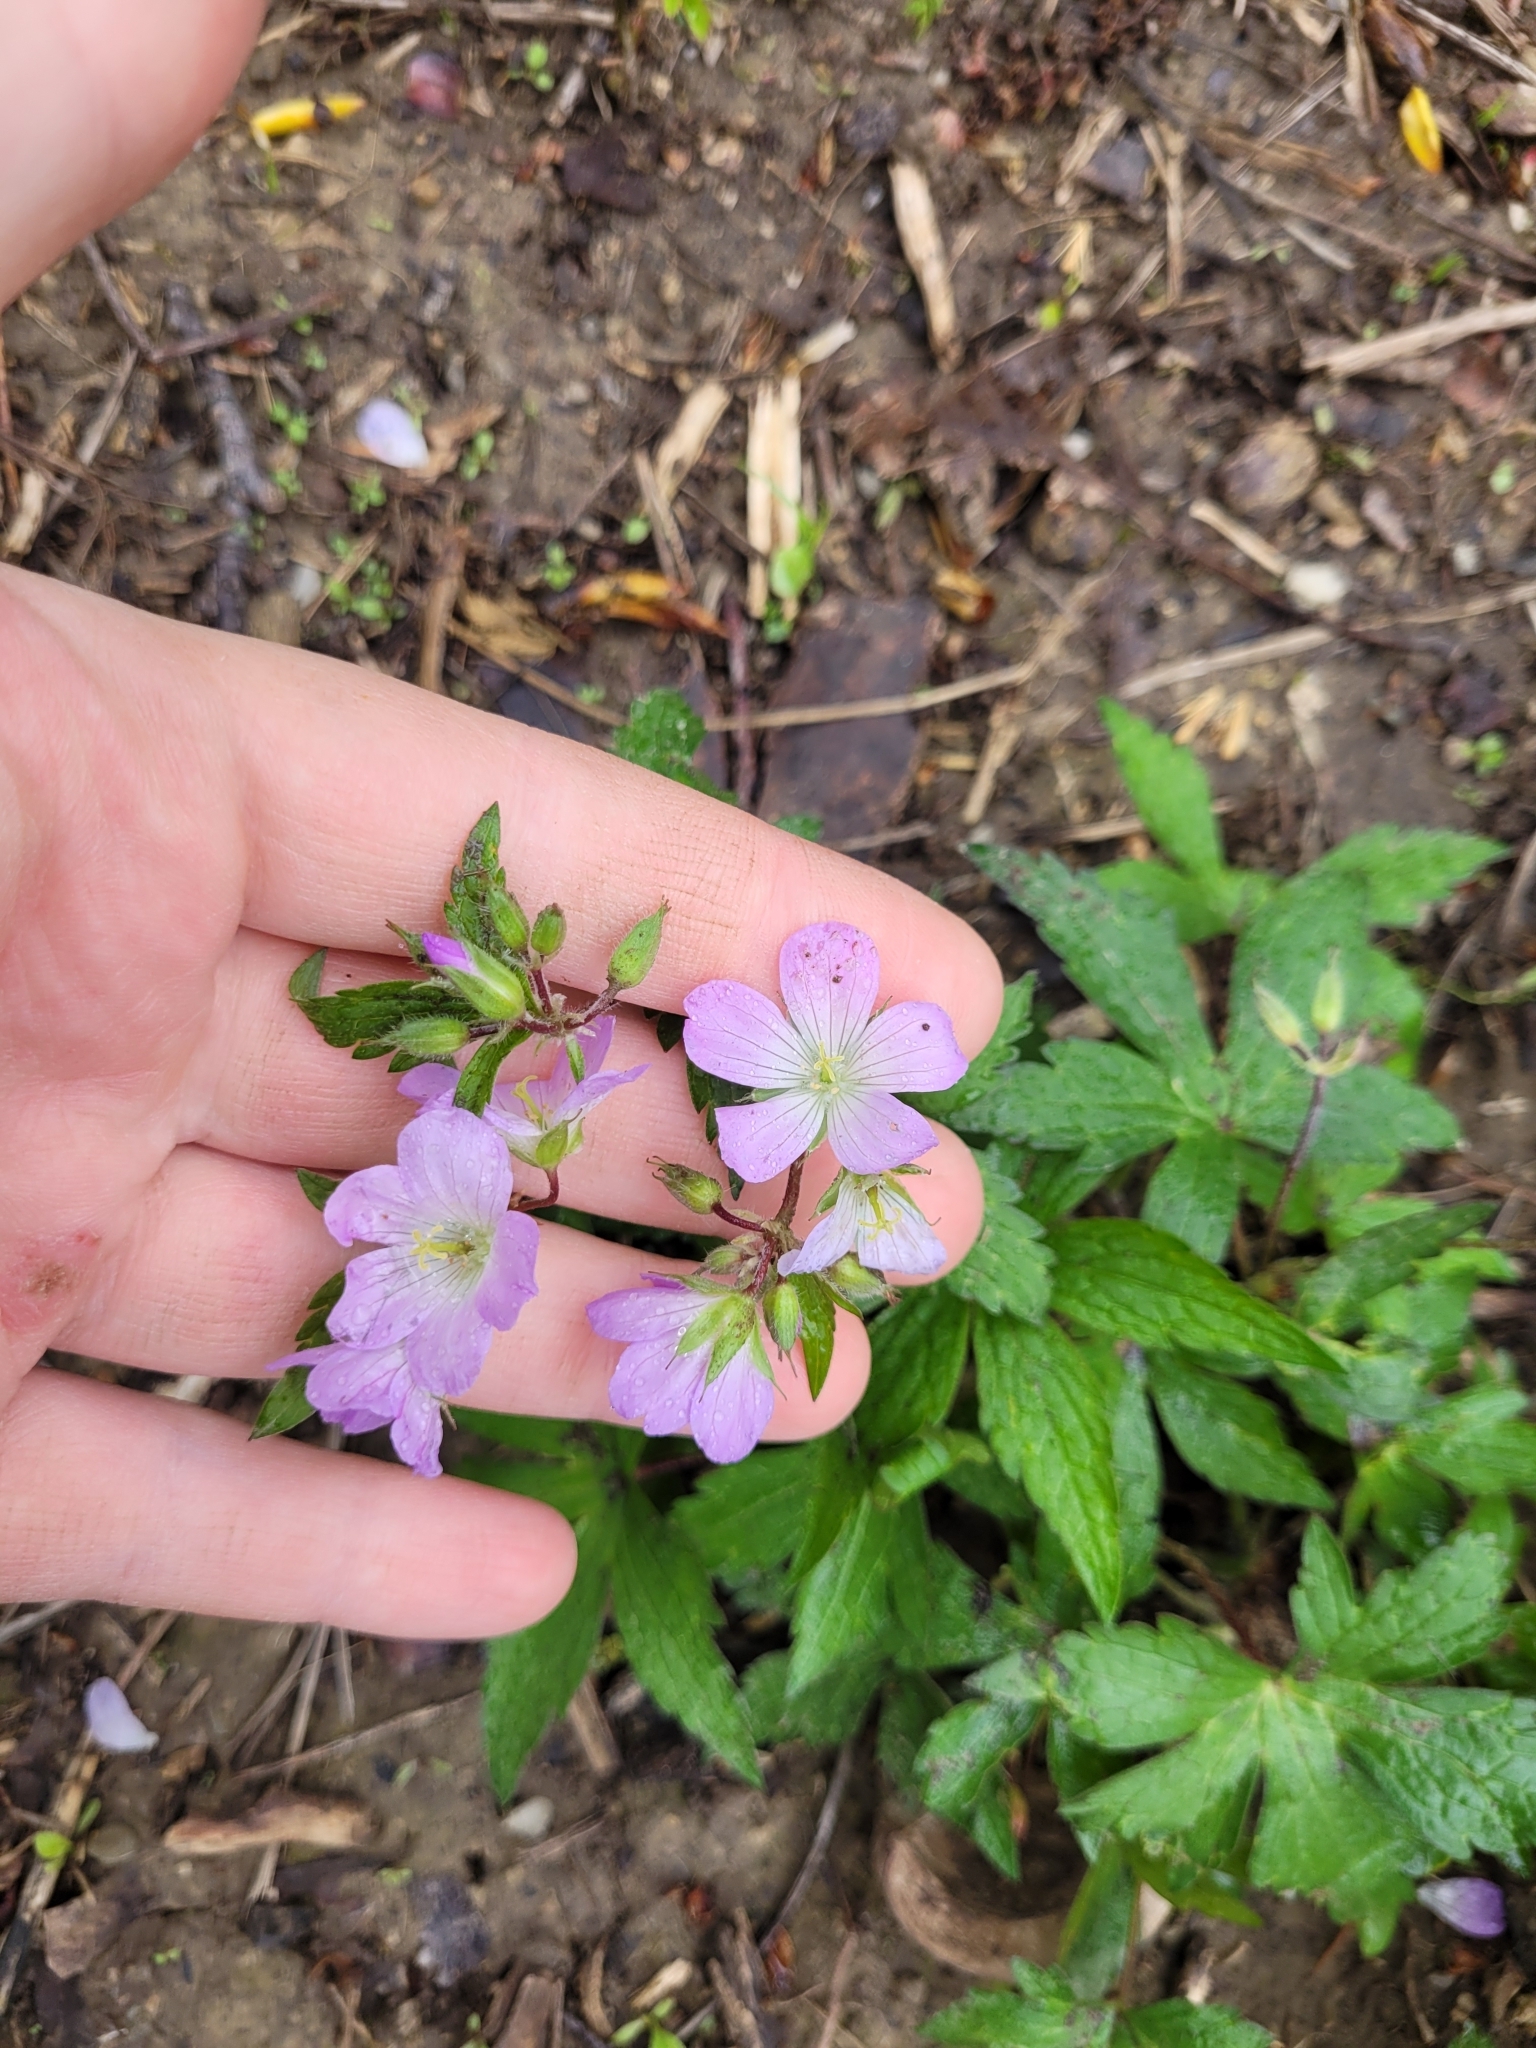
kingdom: Plantae
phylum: Tracheophyta
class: Magnoliopsida
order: Geraniales
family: Geraniaceae
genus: Geranium
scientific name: Geranium maculatum
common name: Spotted geranium
